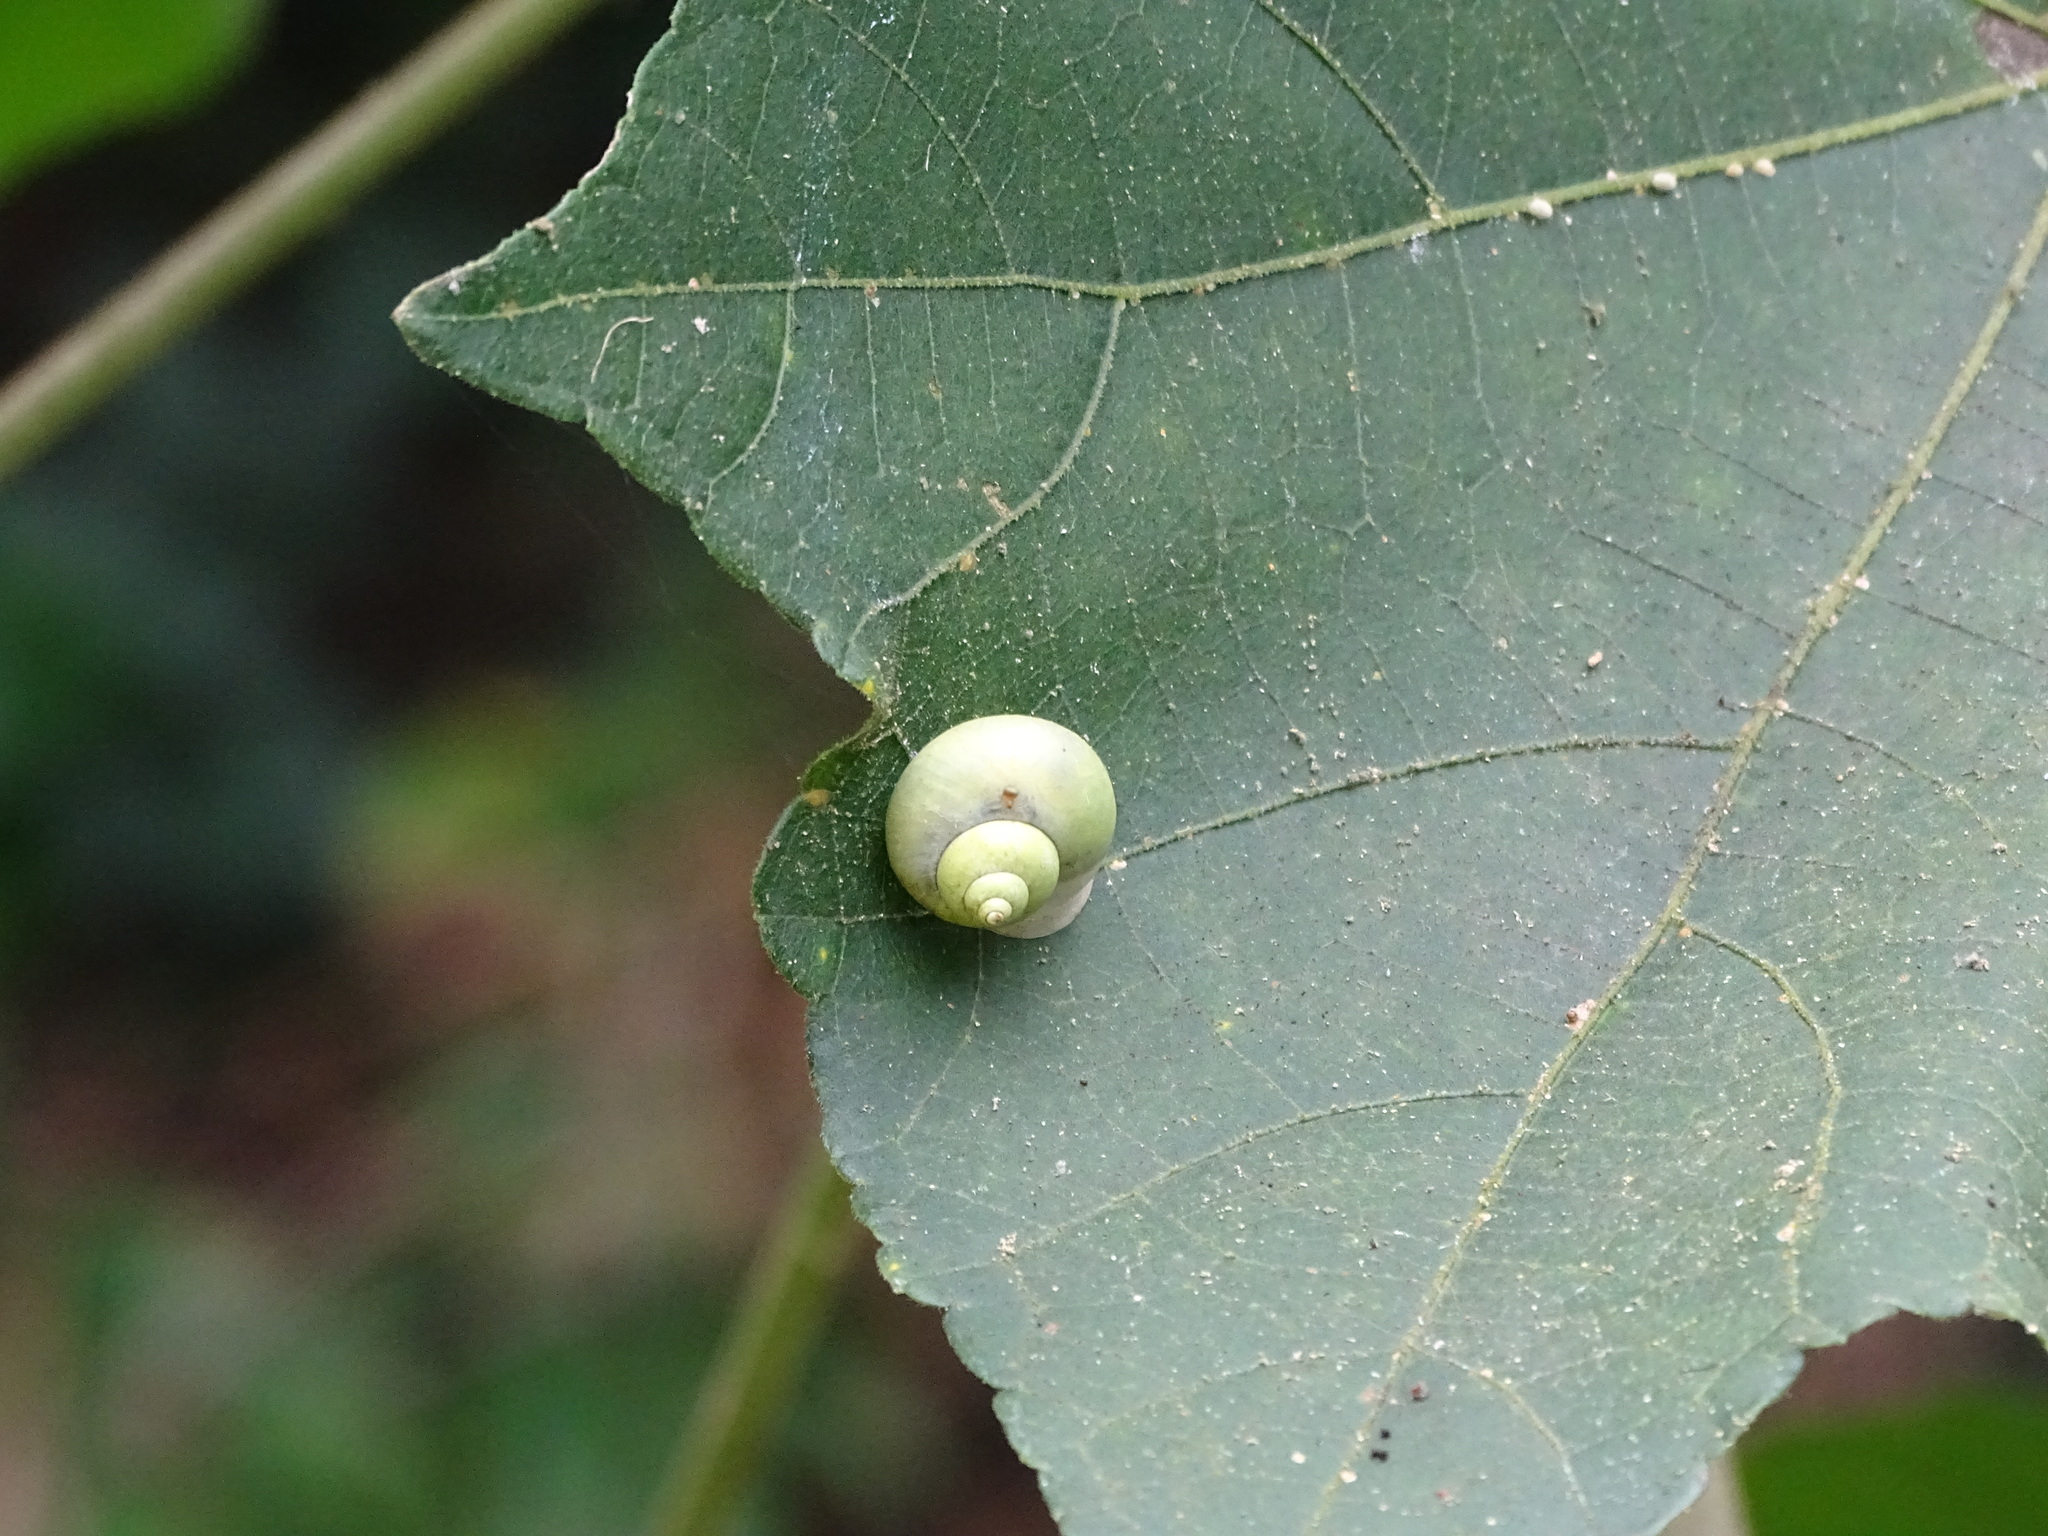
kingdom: Animalia
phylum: Mollusca
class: Gastropoda
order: Architaenioglossa
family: Cyclophoridae
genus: Leptopoma
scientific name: Leptopoma nitidum
